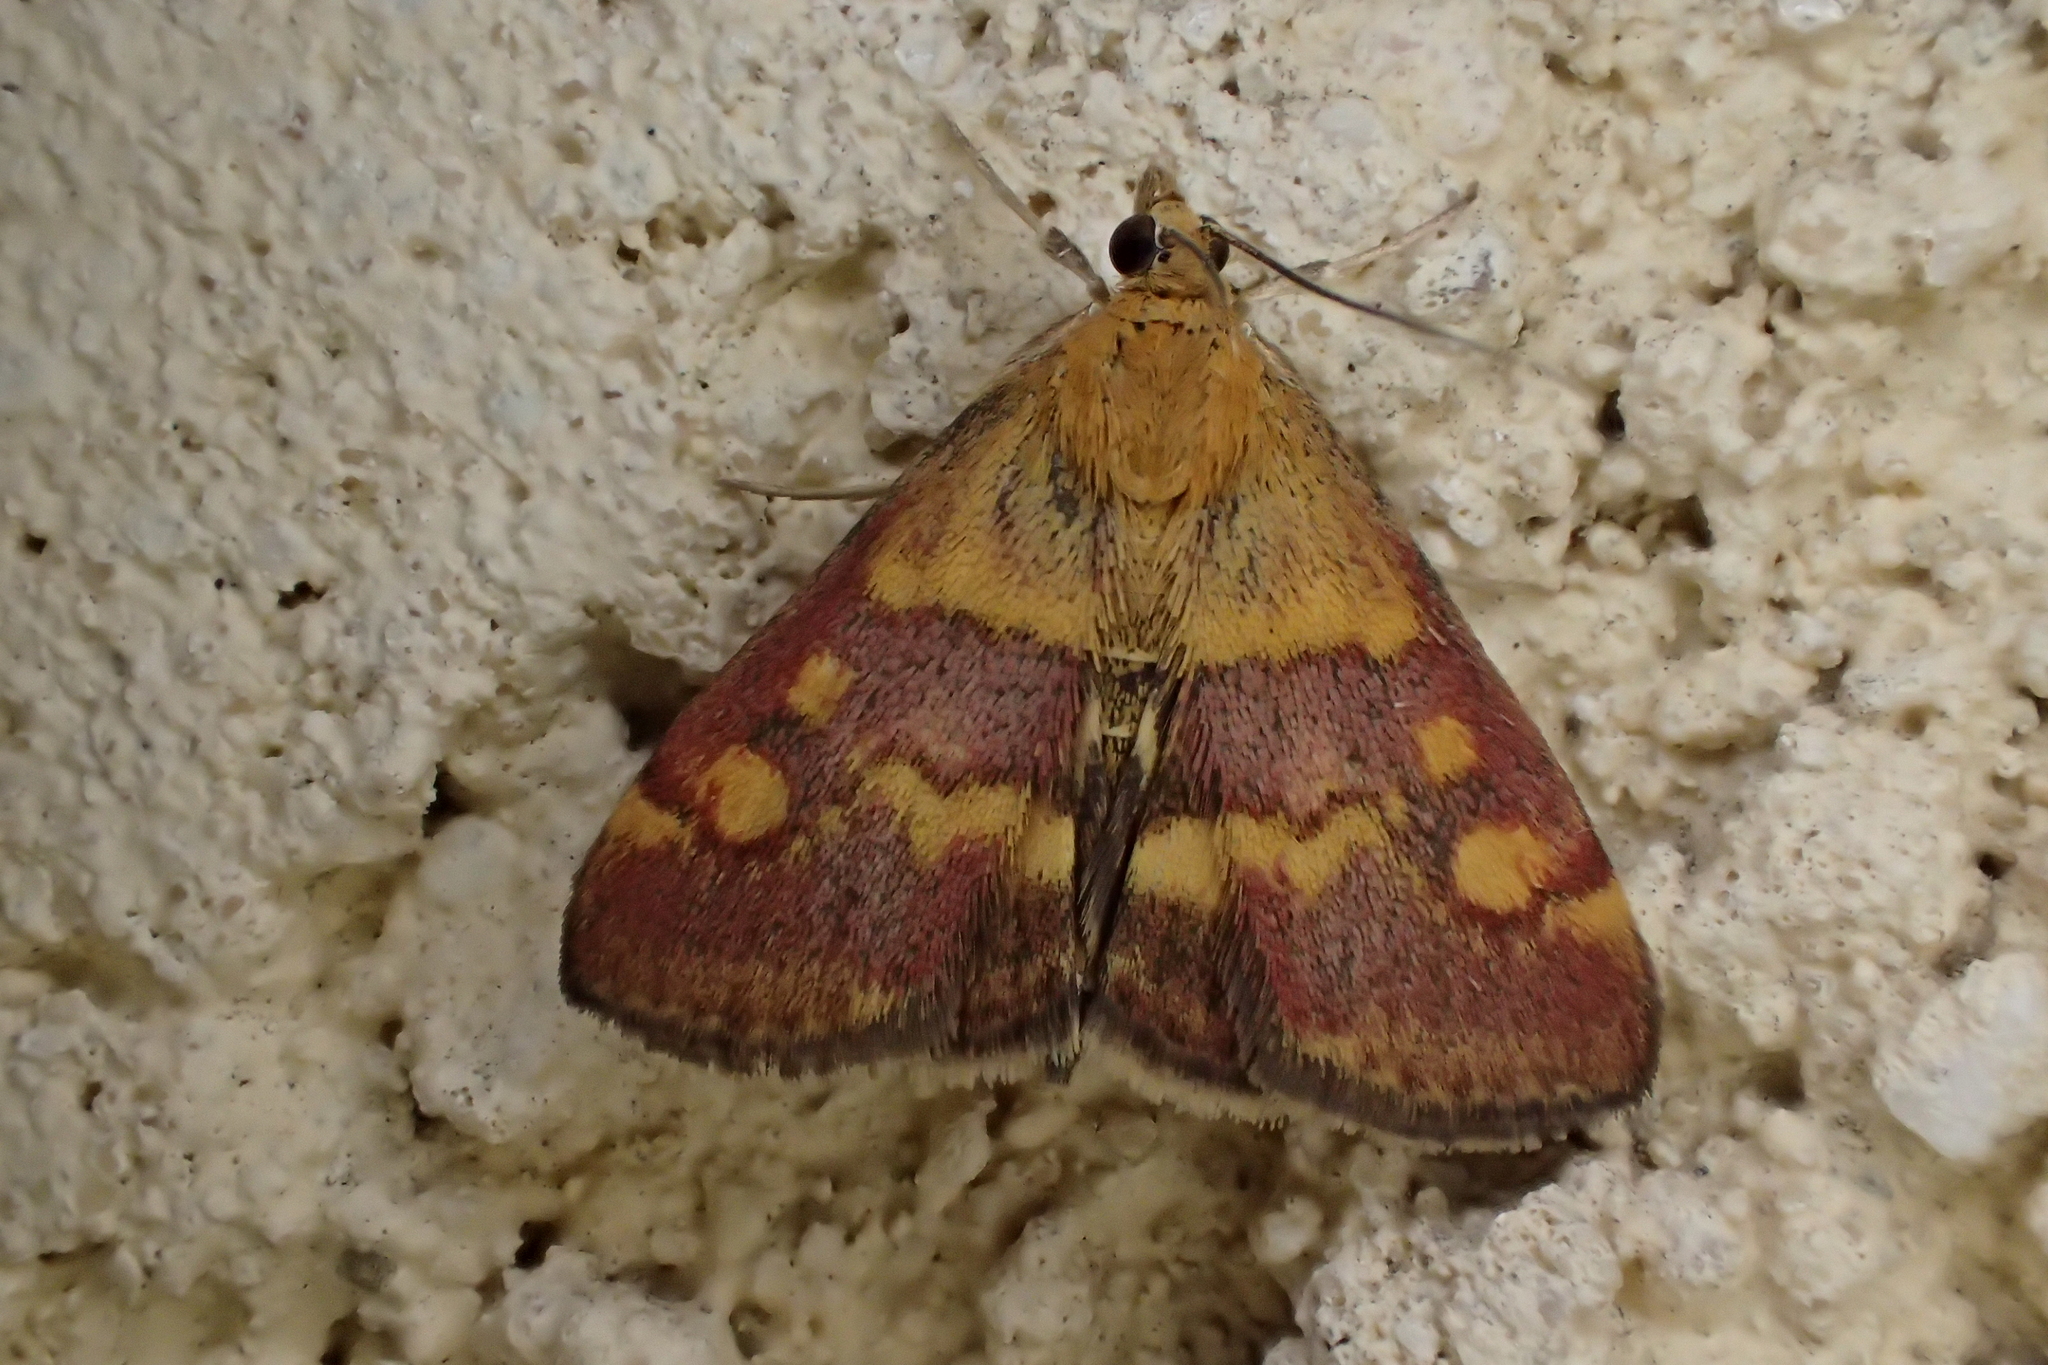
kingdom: Animalia
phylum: Arthropoda
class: Insecta
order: Lepidoptera
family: Crambidae
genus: Pyrausta
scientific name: Pyrausta aurata
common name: Small purple & gold
